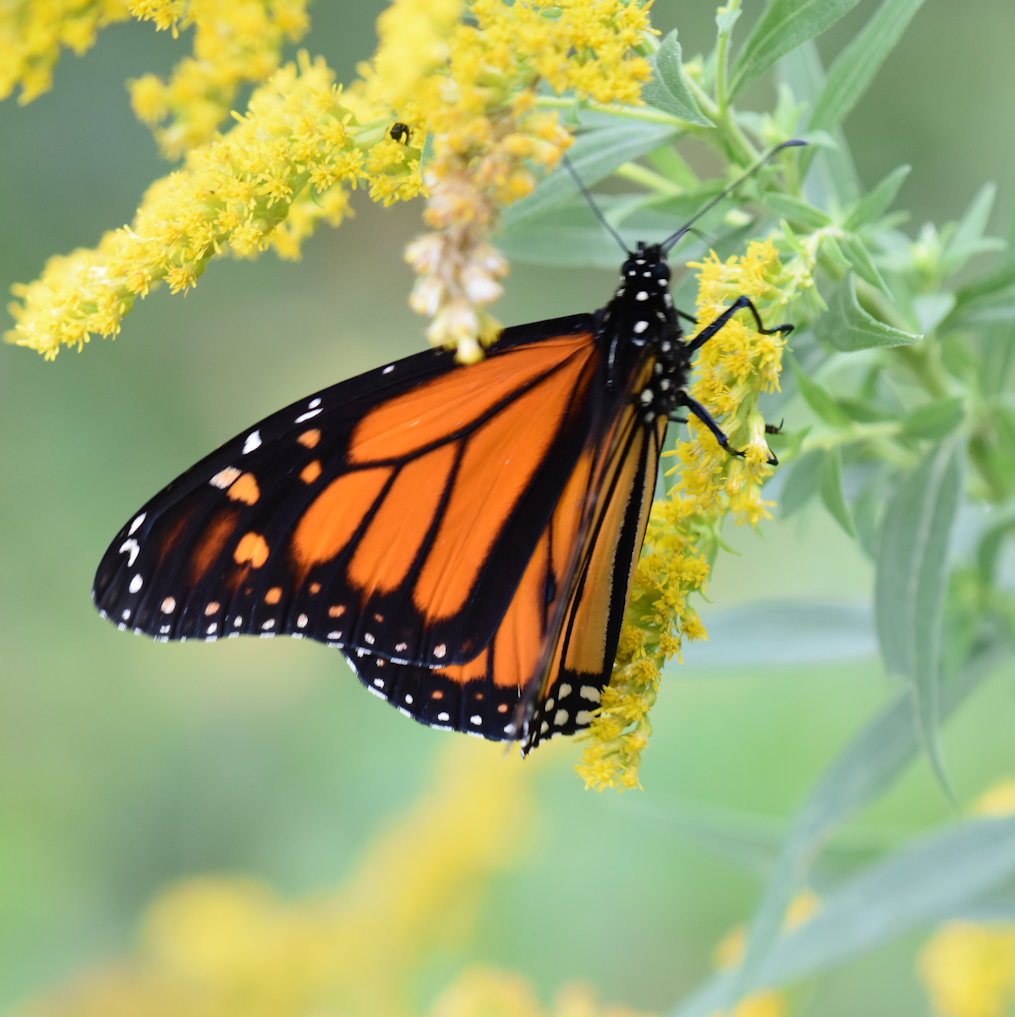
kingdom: Animalia
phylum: Arthropoda
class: Insecta
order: Lepidoptera
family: Nymphalidae
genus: Danaus
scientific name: Danaus plexippus
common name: Monarch
